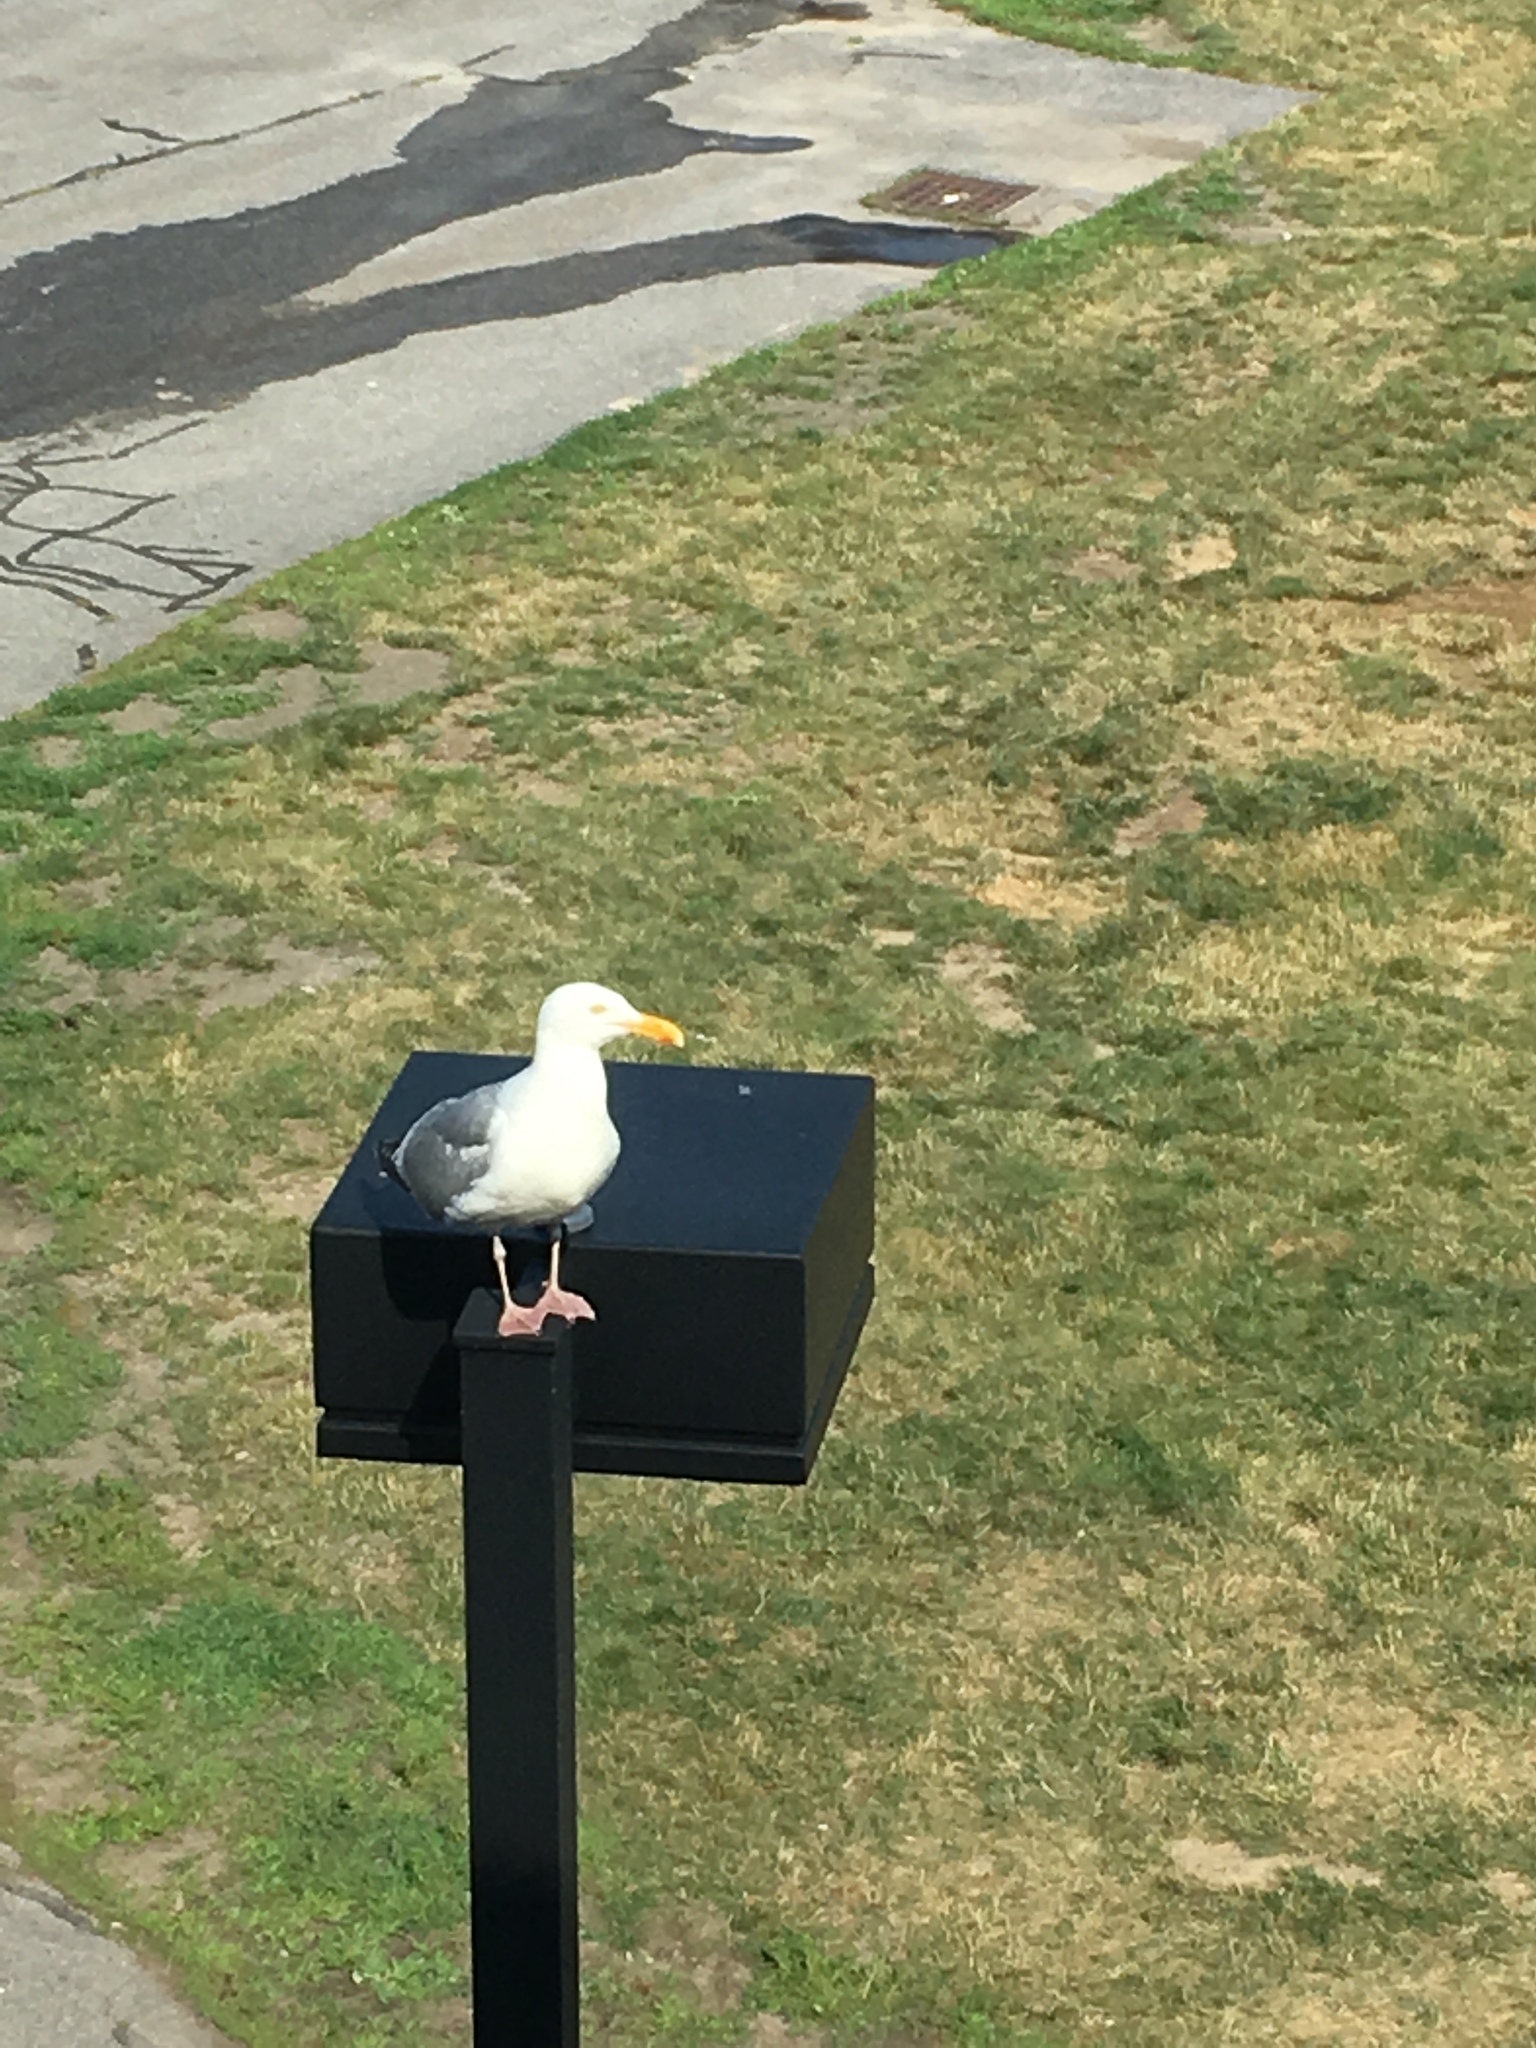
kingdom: Animalia
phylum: Chordata
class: Aves
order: Charadriiformes
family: Laridae
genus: Larus
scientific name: Larus argentatus
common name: Herring gull
